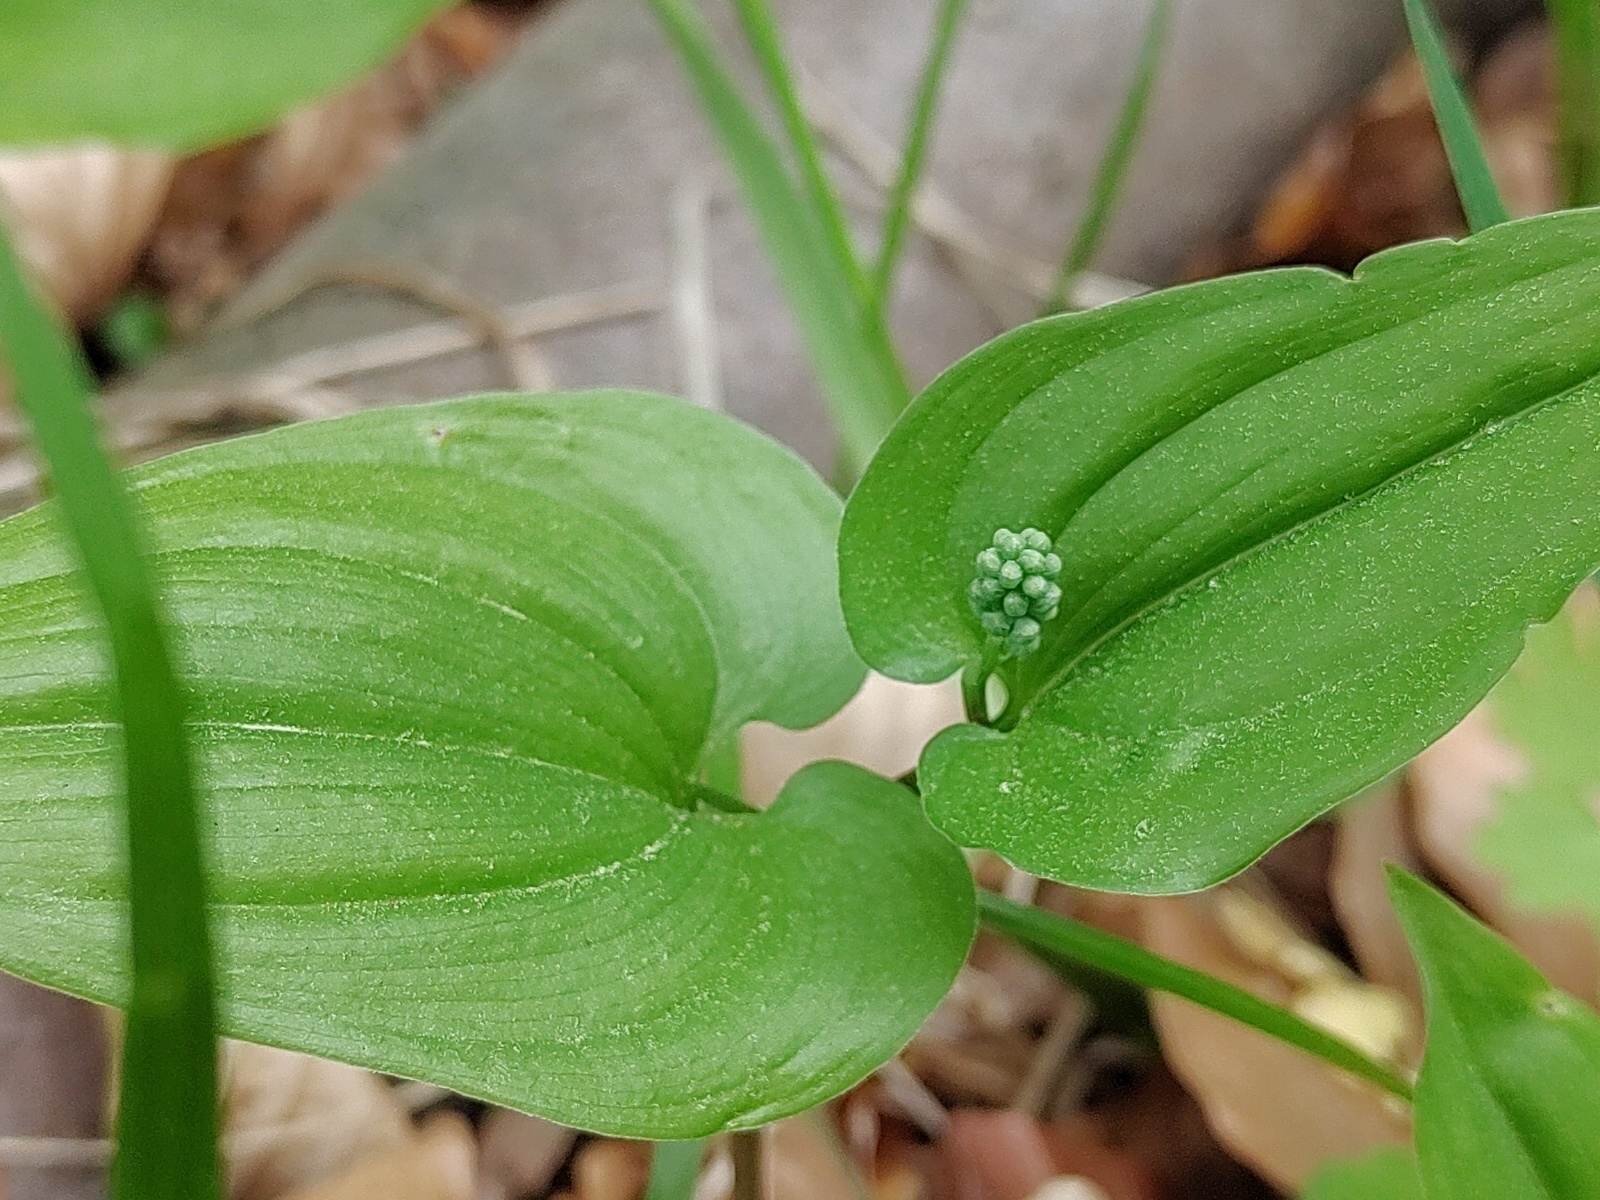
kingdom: Plantae
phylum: Tracheophyta
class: Liliopsida
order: Asparagales
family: Asparagaceae
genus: Maianthemum
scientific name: Maianthemum bifolium
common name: May lily
